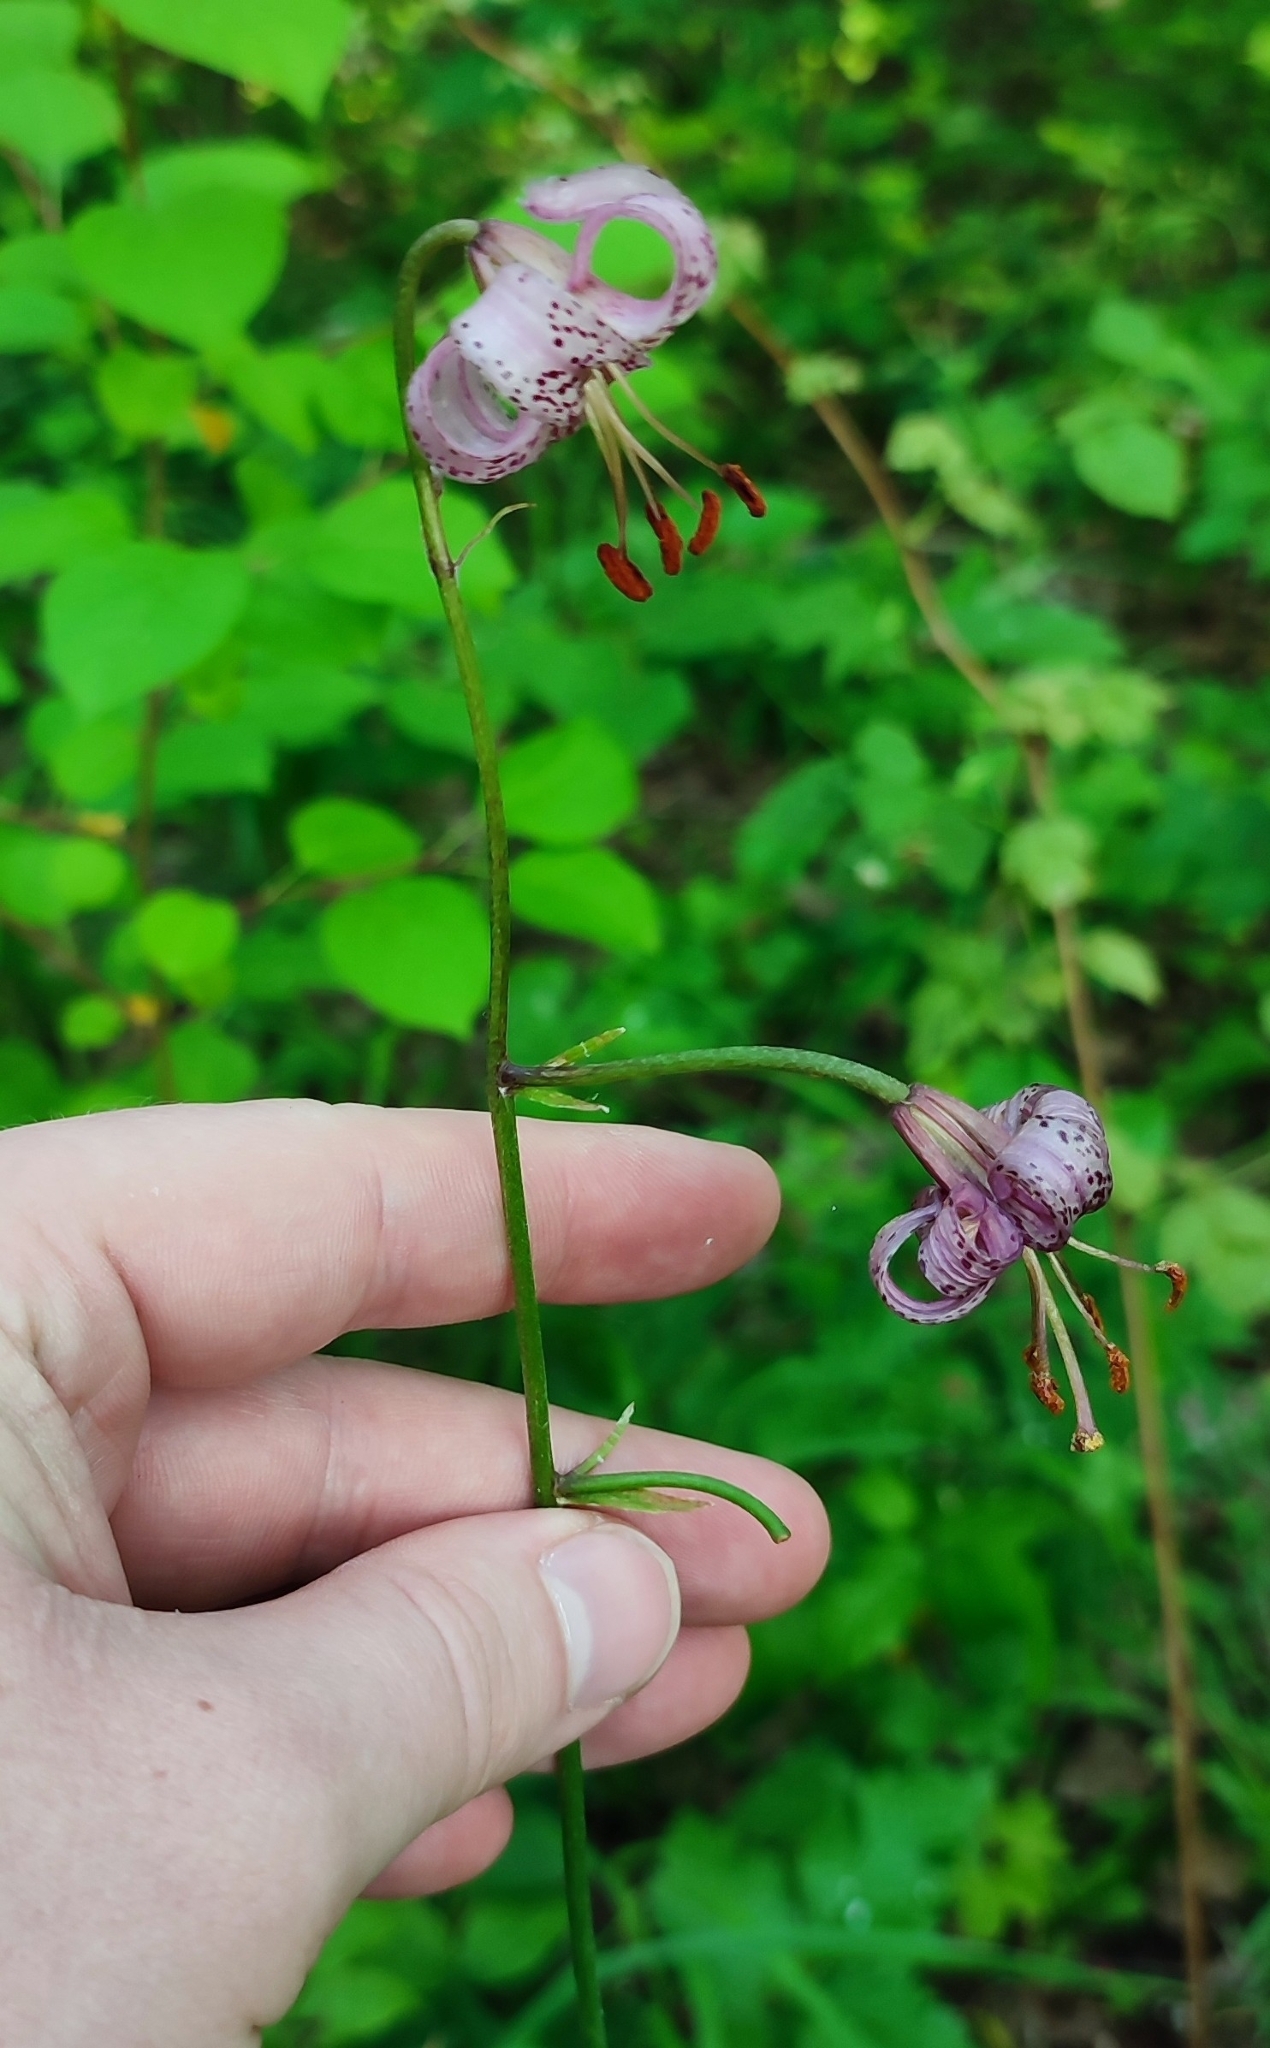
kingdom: Plantae
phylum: Tracheophyta
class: Liliopsida
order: Liliales
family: Liliaceae
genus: Lilium
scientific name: Lilium martagon
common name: Martagon lily
